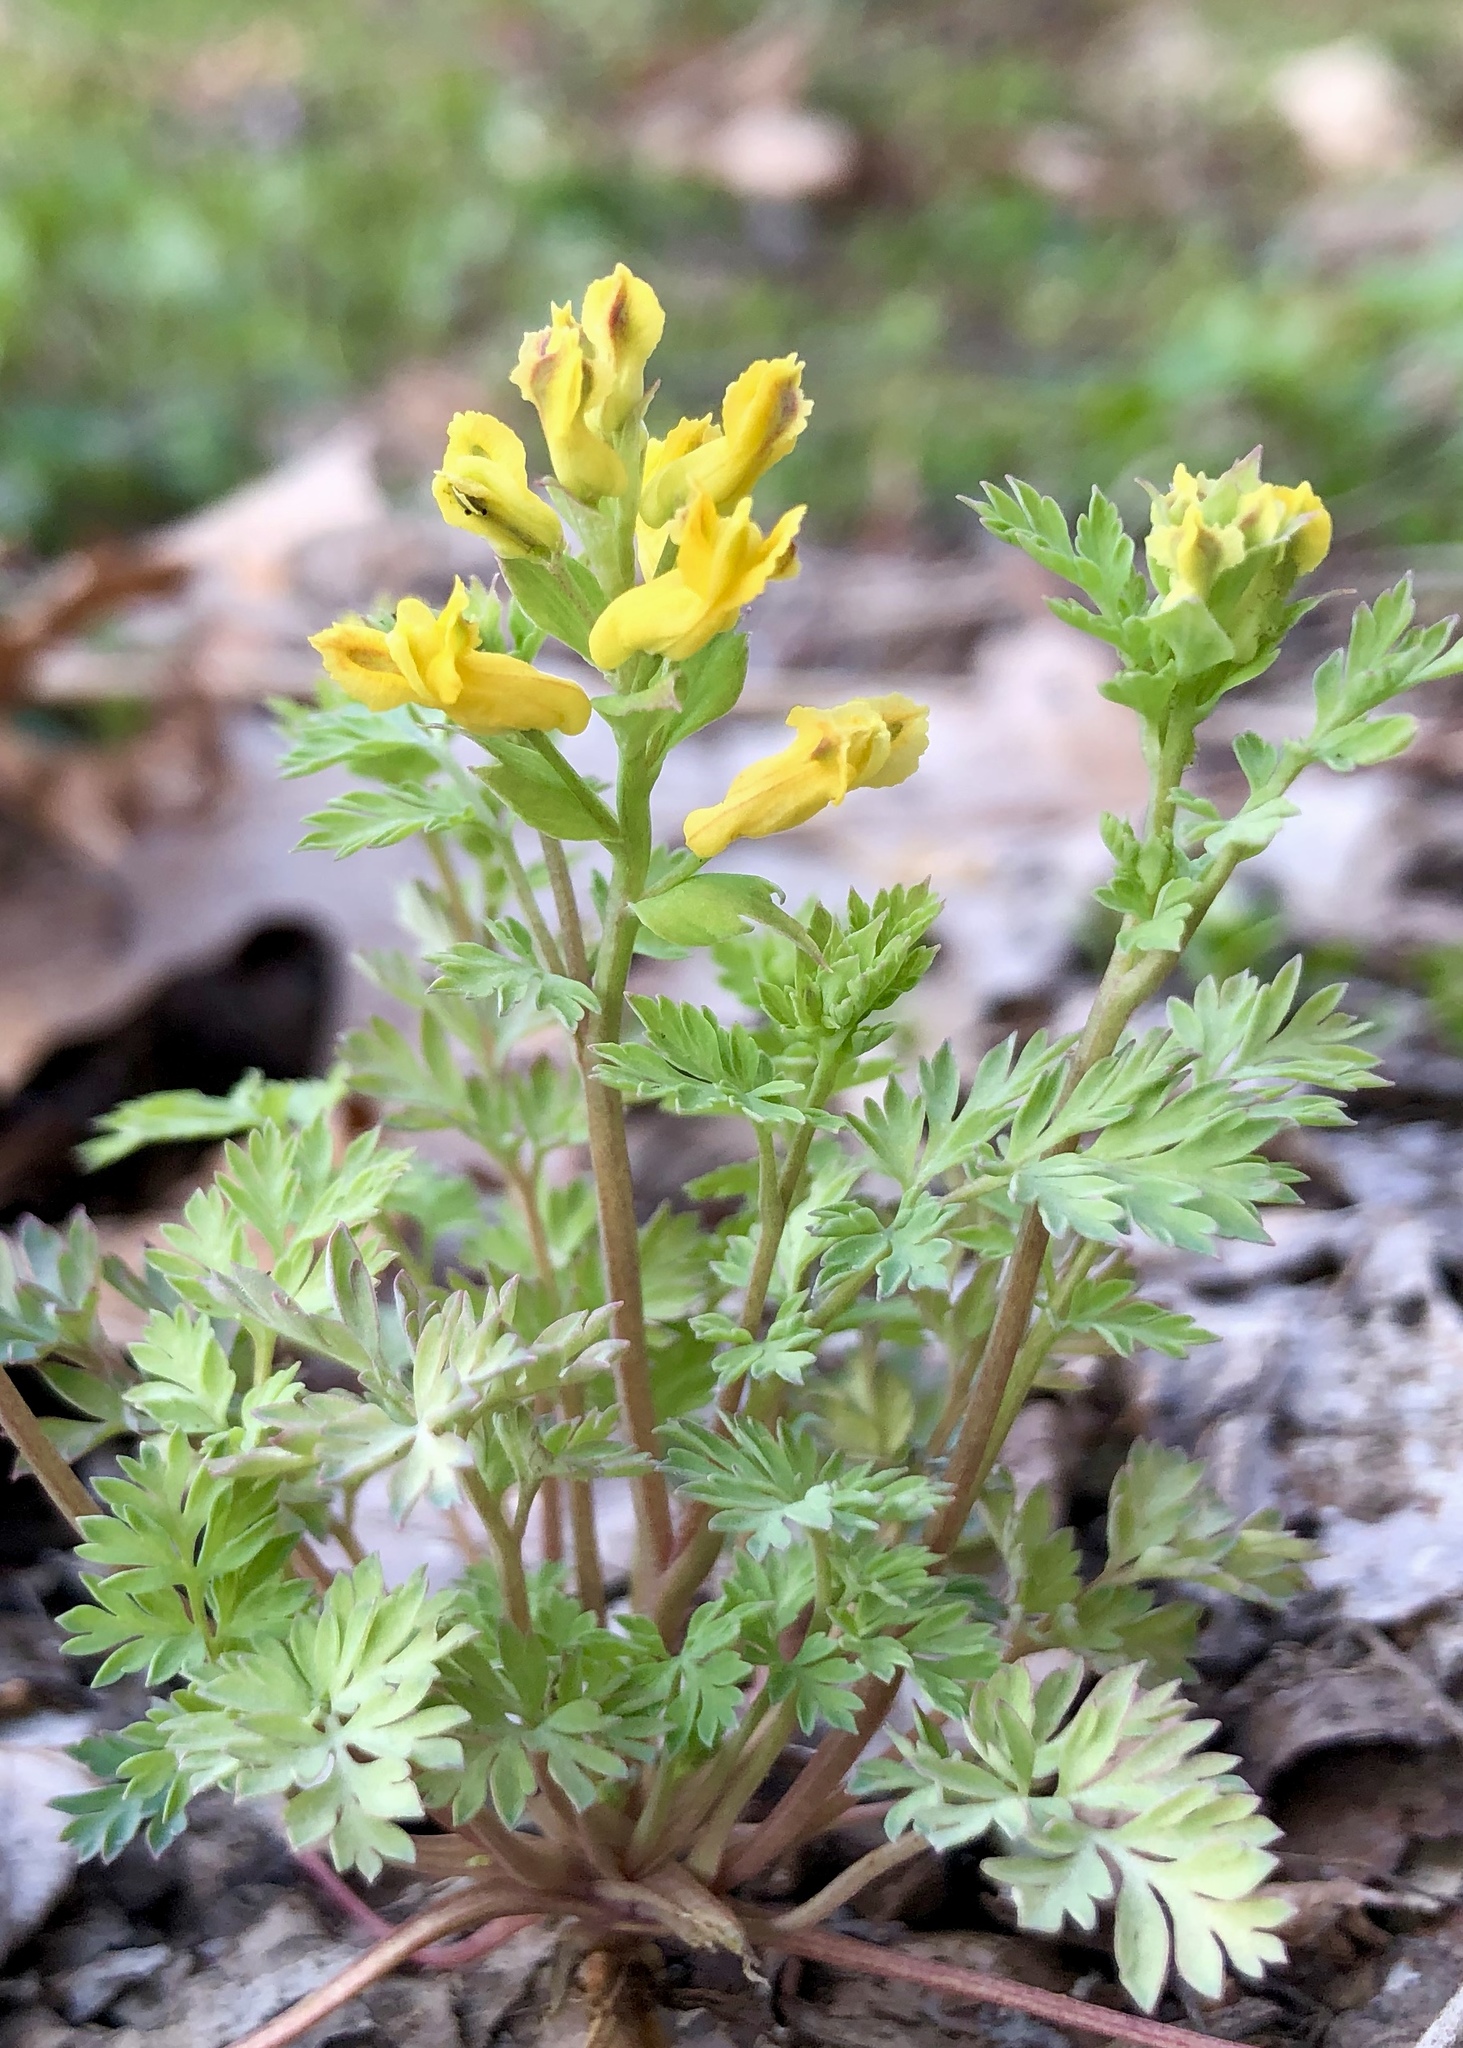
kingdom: Plantae
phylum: Tracheophyta
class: Magnoliopsida
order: Ranunculales
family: Papaveraceae
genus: Corydalis
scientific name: Corydalis flavula
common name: Yellow corydalis
